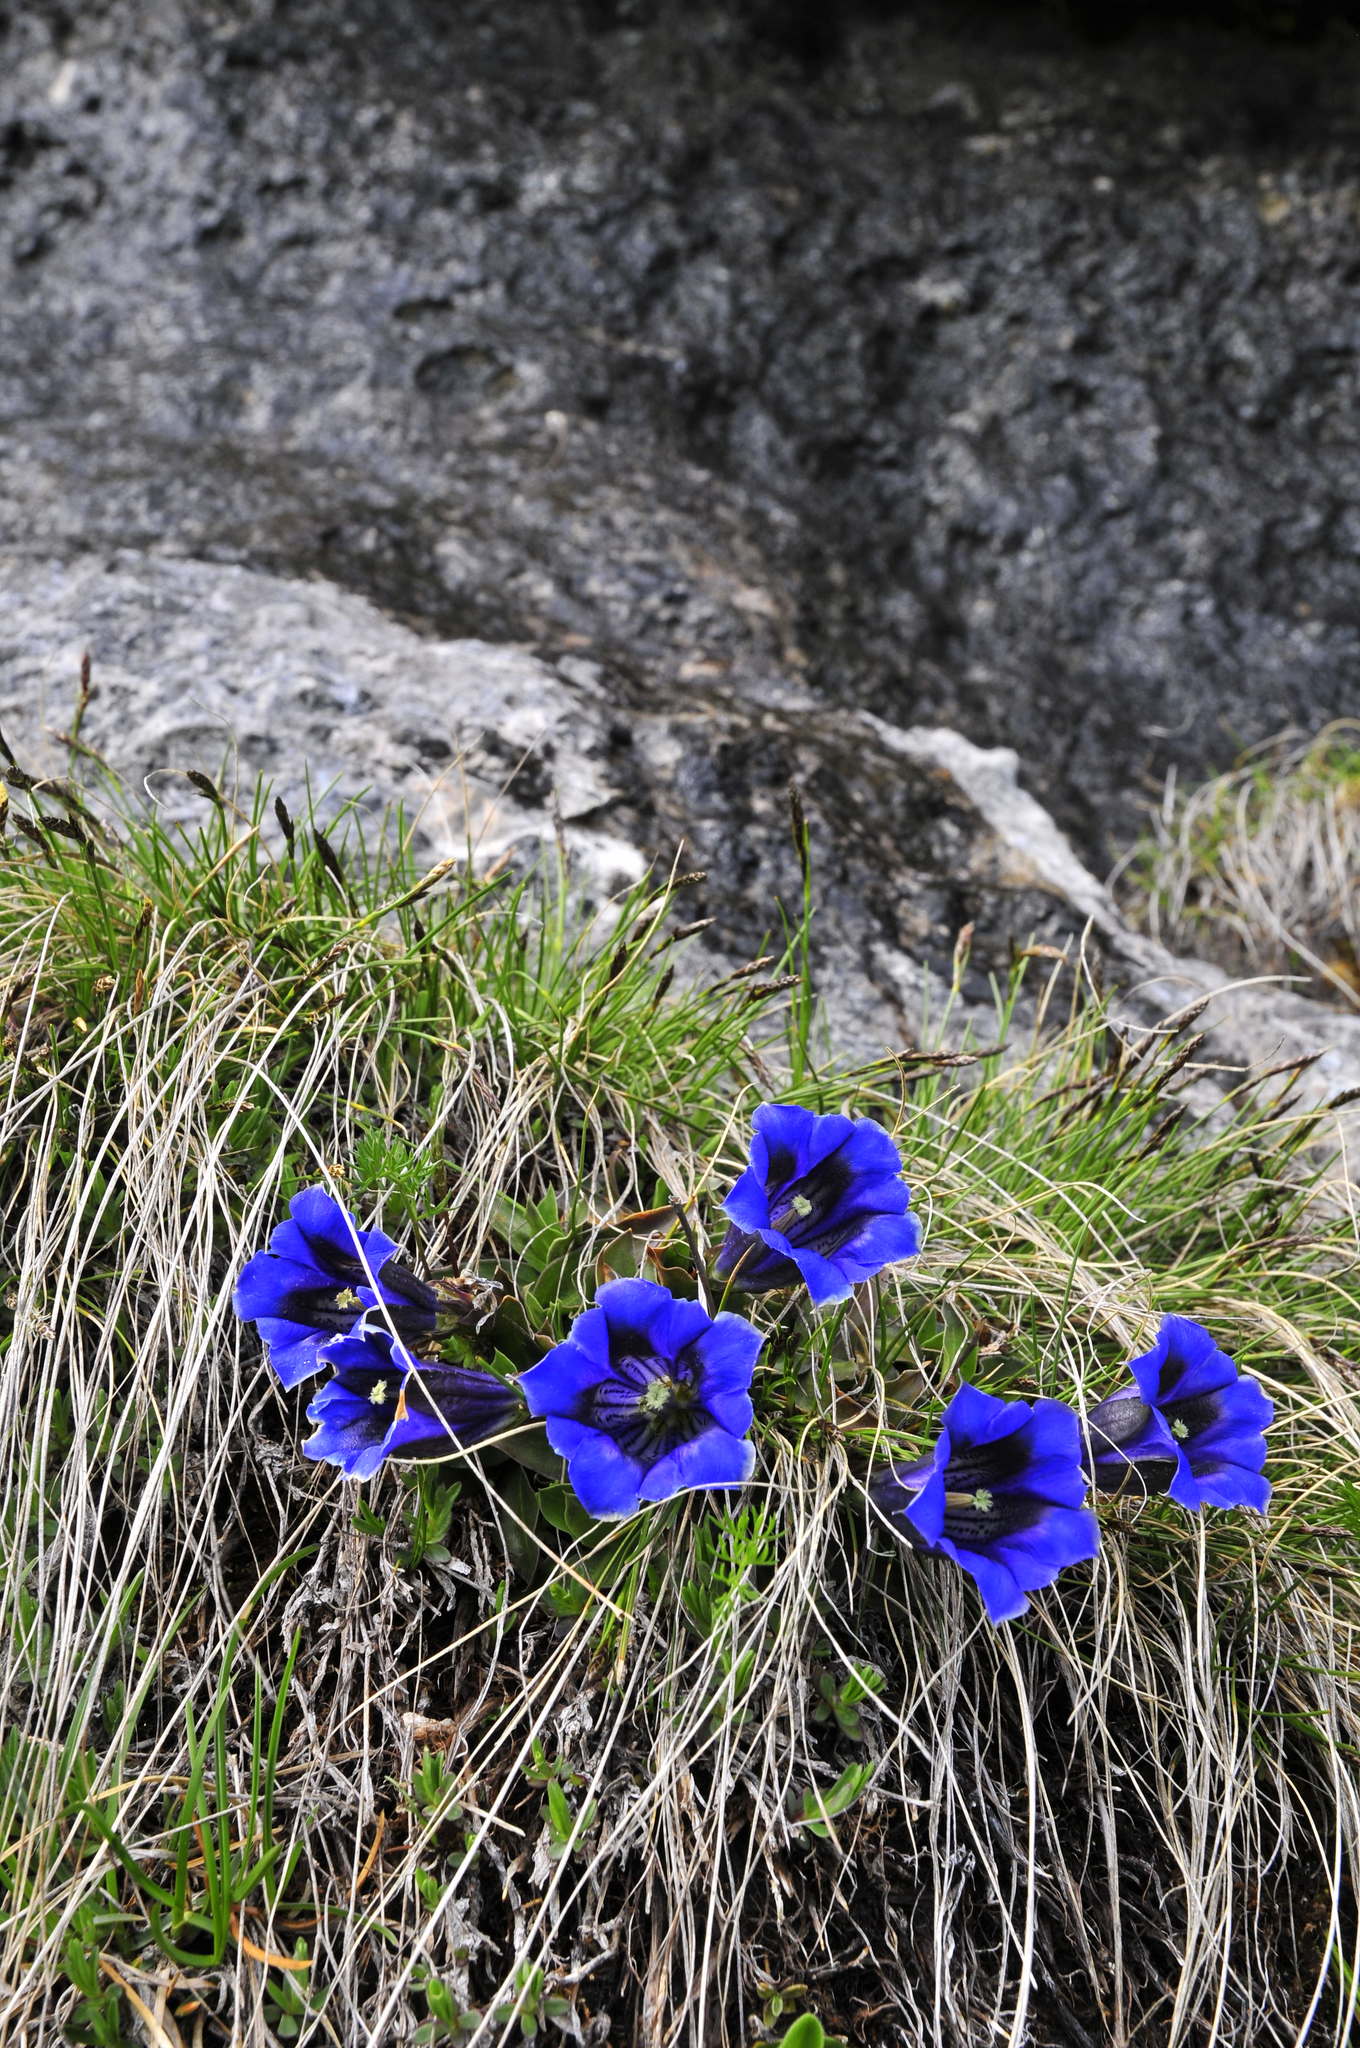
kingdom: Plantae
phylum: Tracheophyta
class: Magnoliopsida
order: Gentianales
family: Gentianaceae
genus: Gentiana
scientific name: Gentiana clusii
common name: Trumpet gentian
